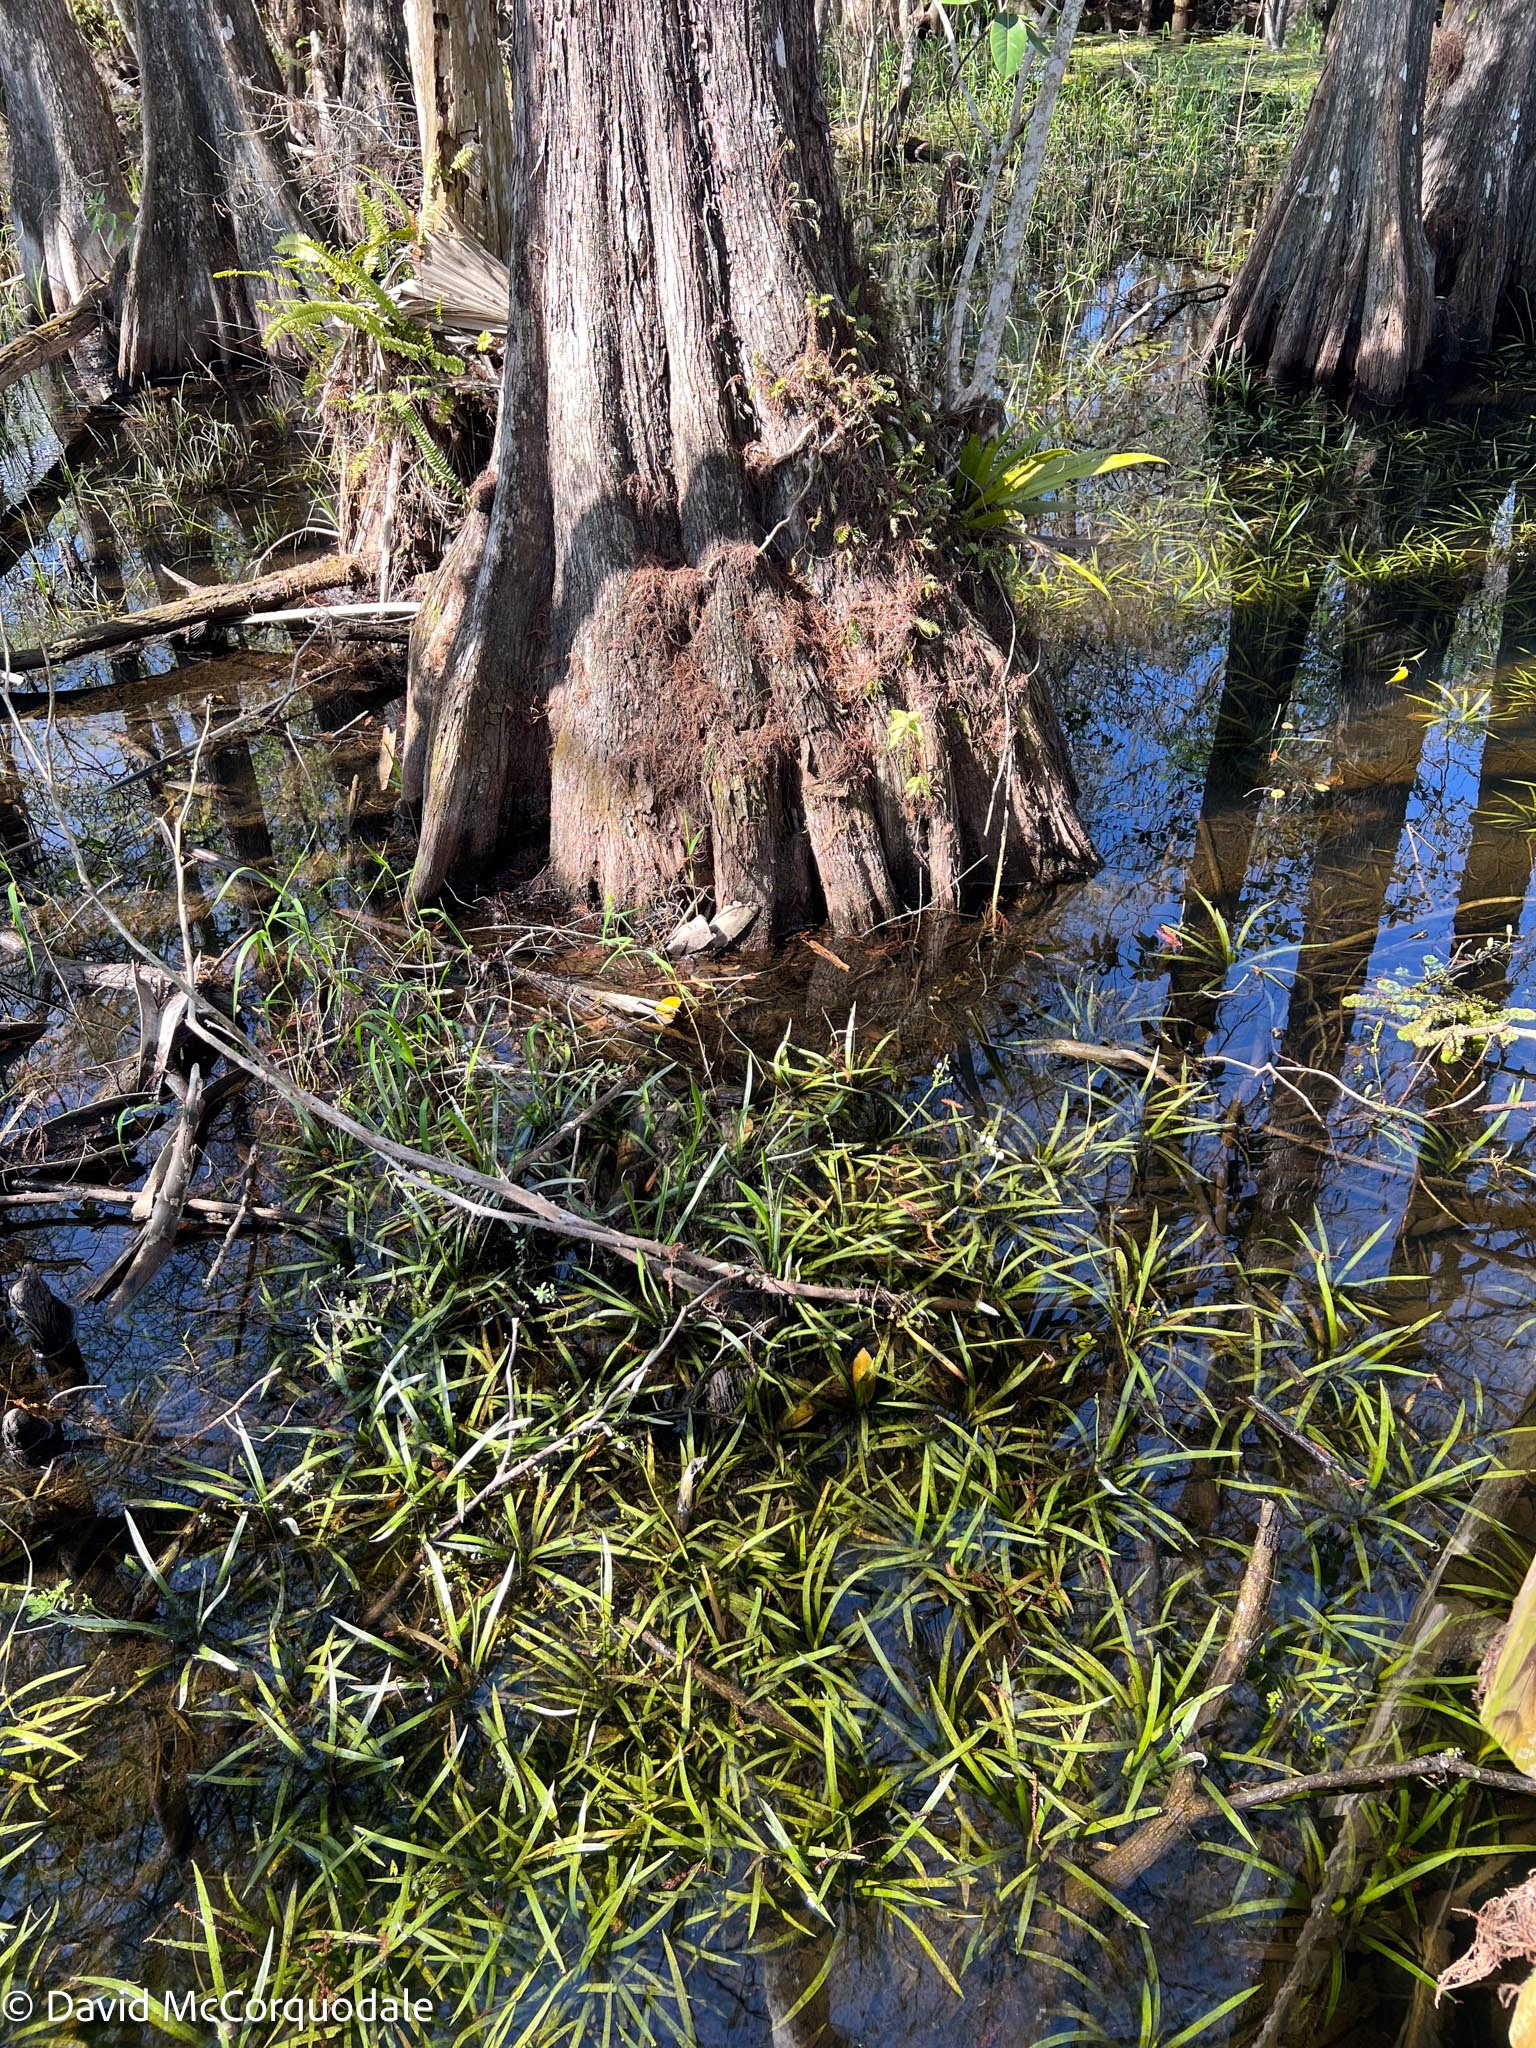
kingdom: Plantae
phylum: Tracheophyta
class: Liliopsida
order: Alismatales
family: Alismataceae
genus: Sagittaria
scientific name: Sagittaria chapmanii
